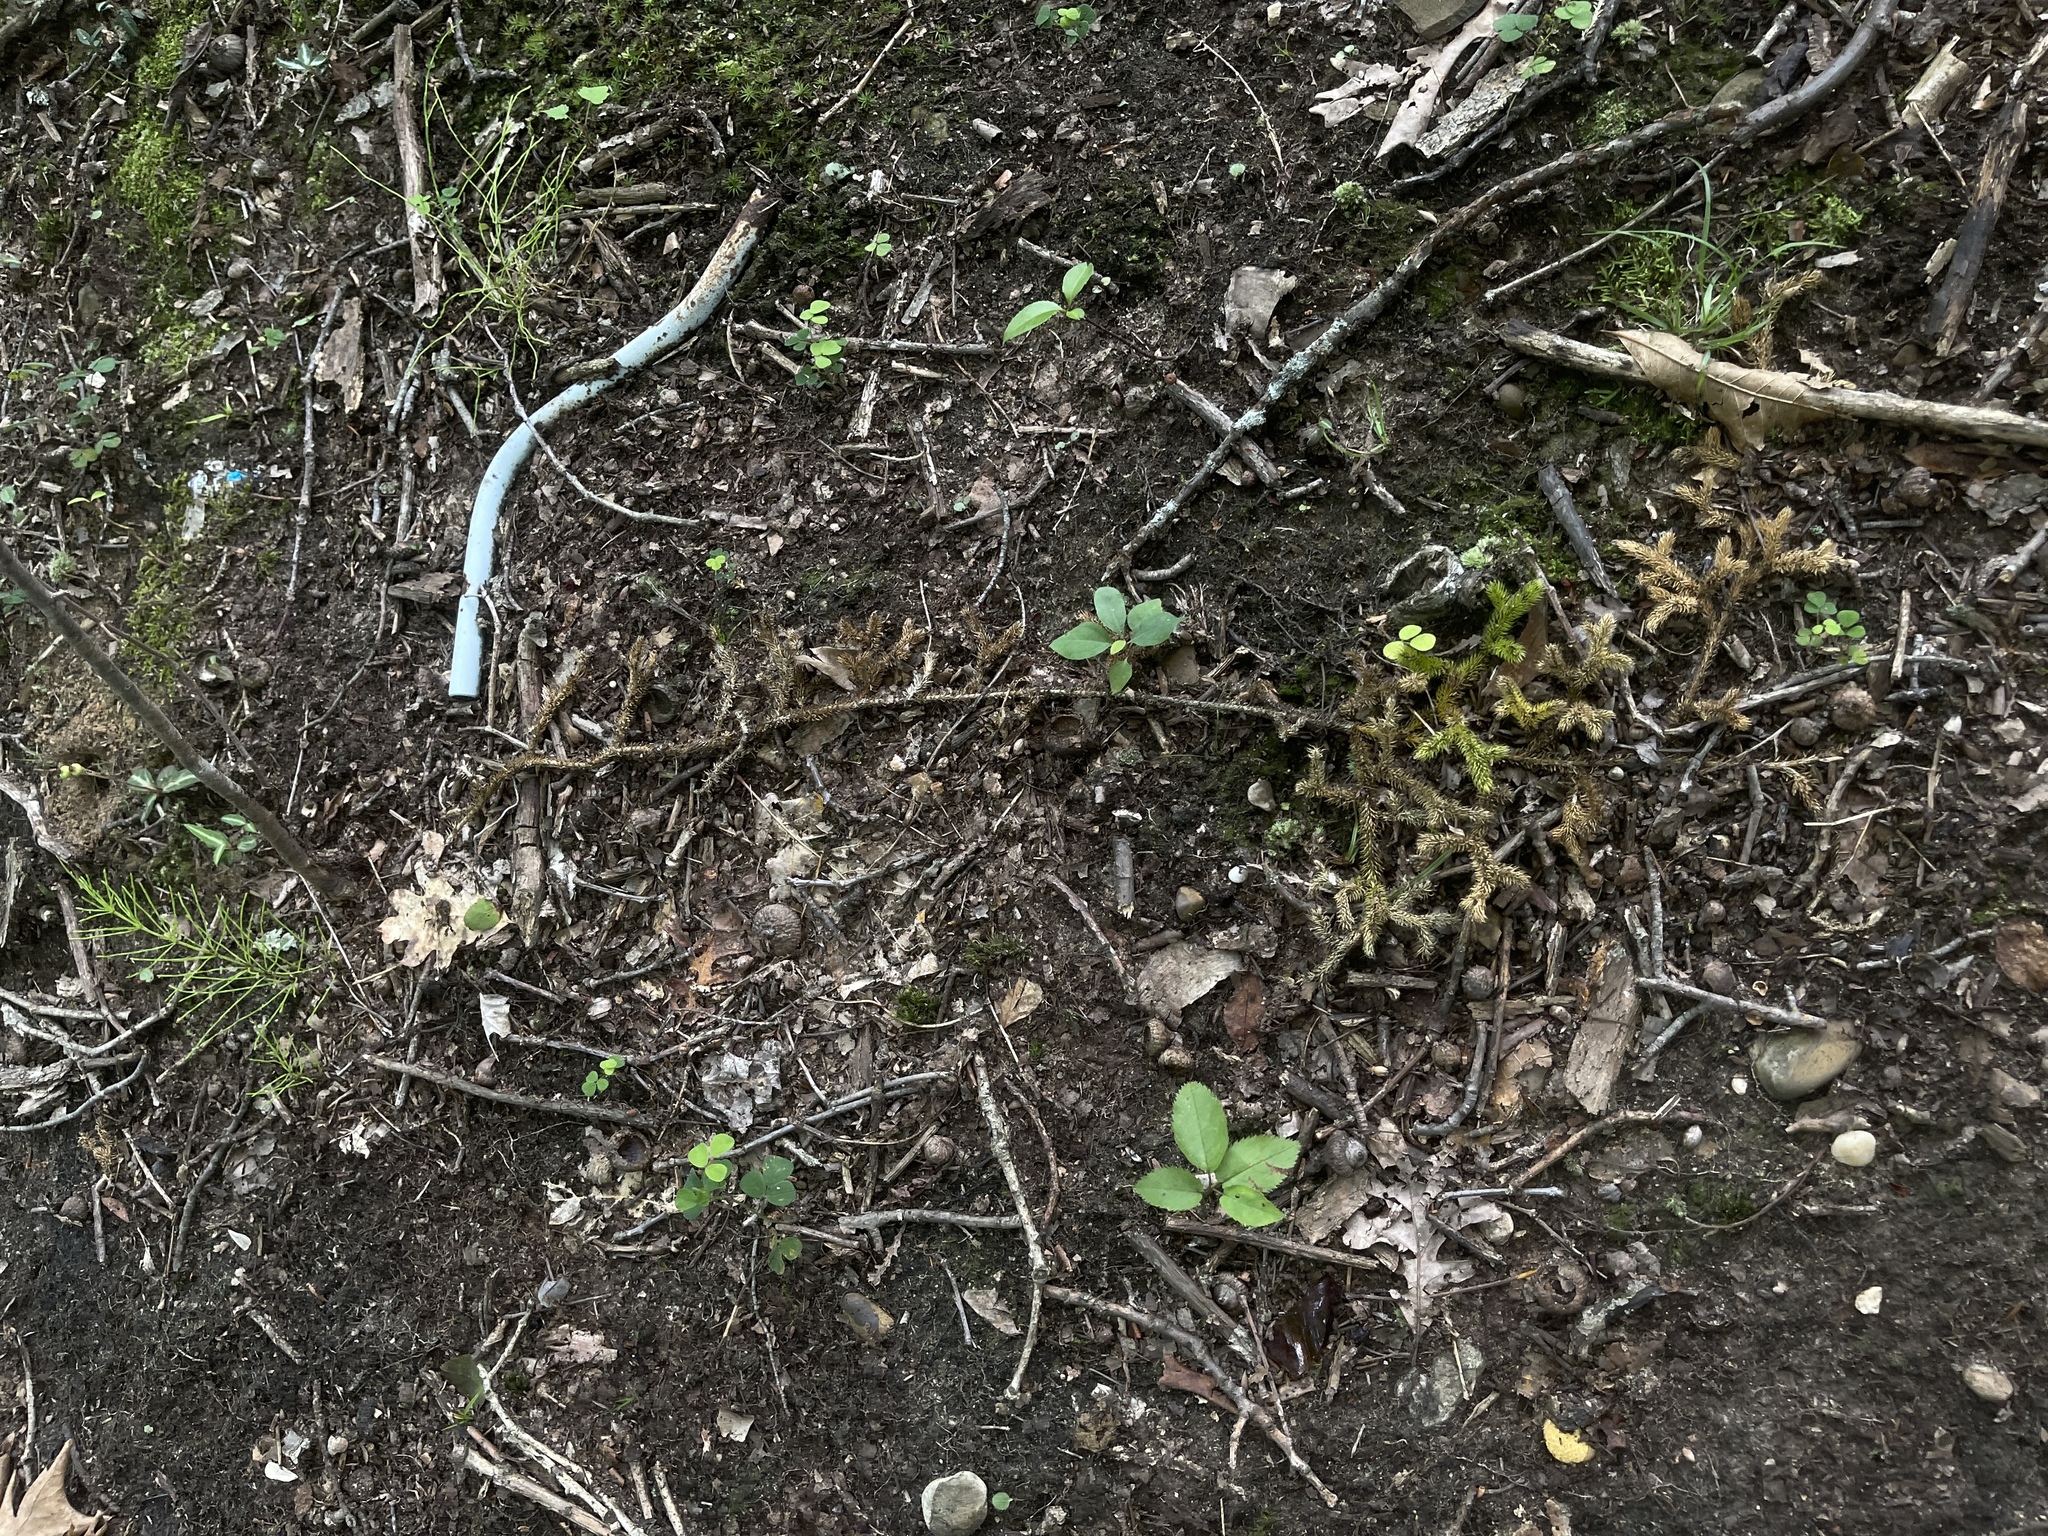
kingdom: Plantae
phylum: Tracheophyta
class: Lycopodiopsida
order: Lycopodiales
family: Lycopodiaceae
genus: Lycopodium
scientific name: Lycopodium clavatum
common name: Stag's-horn clubmoss
